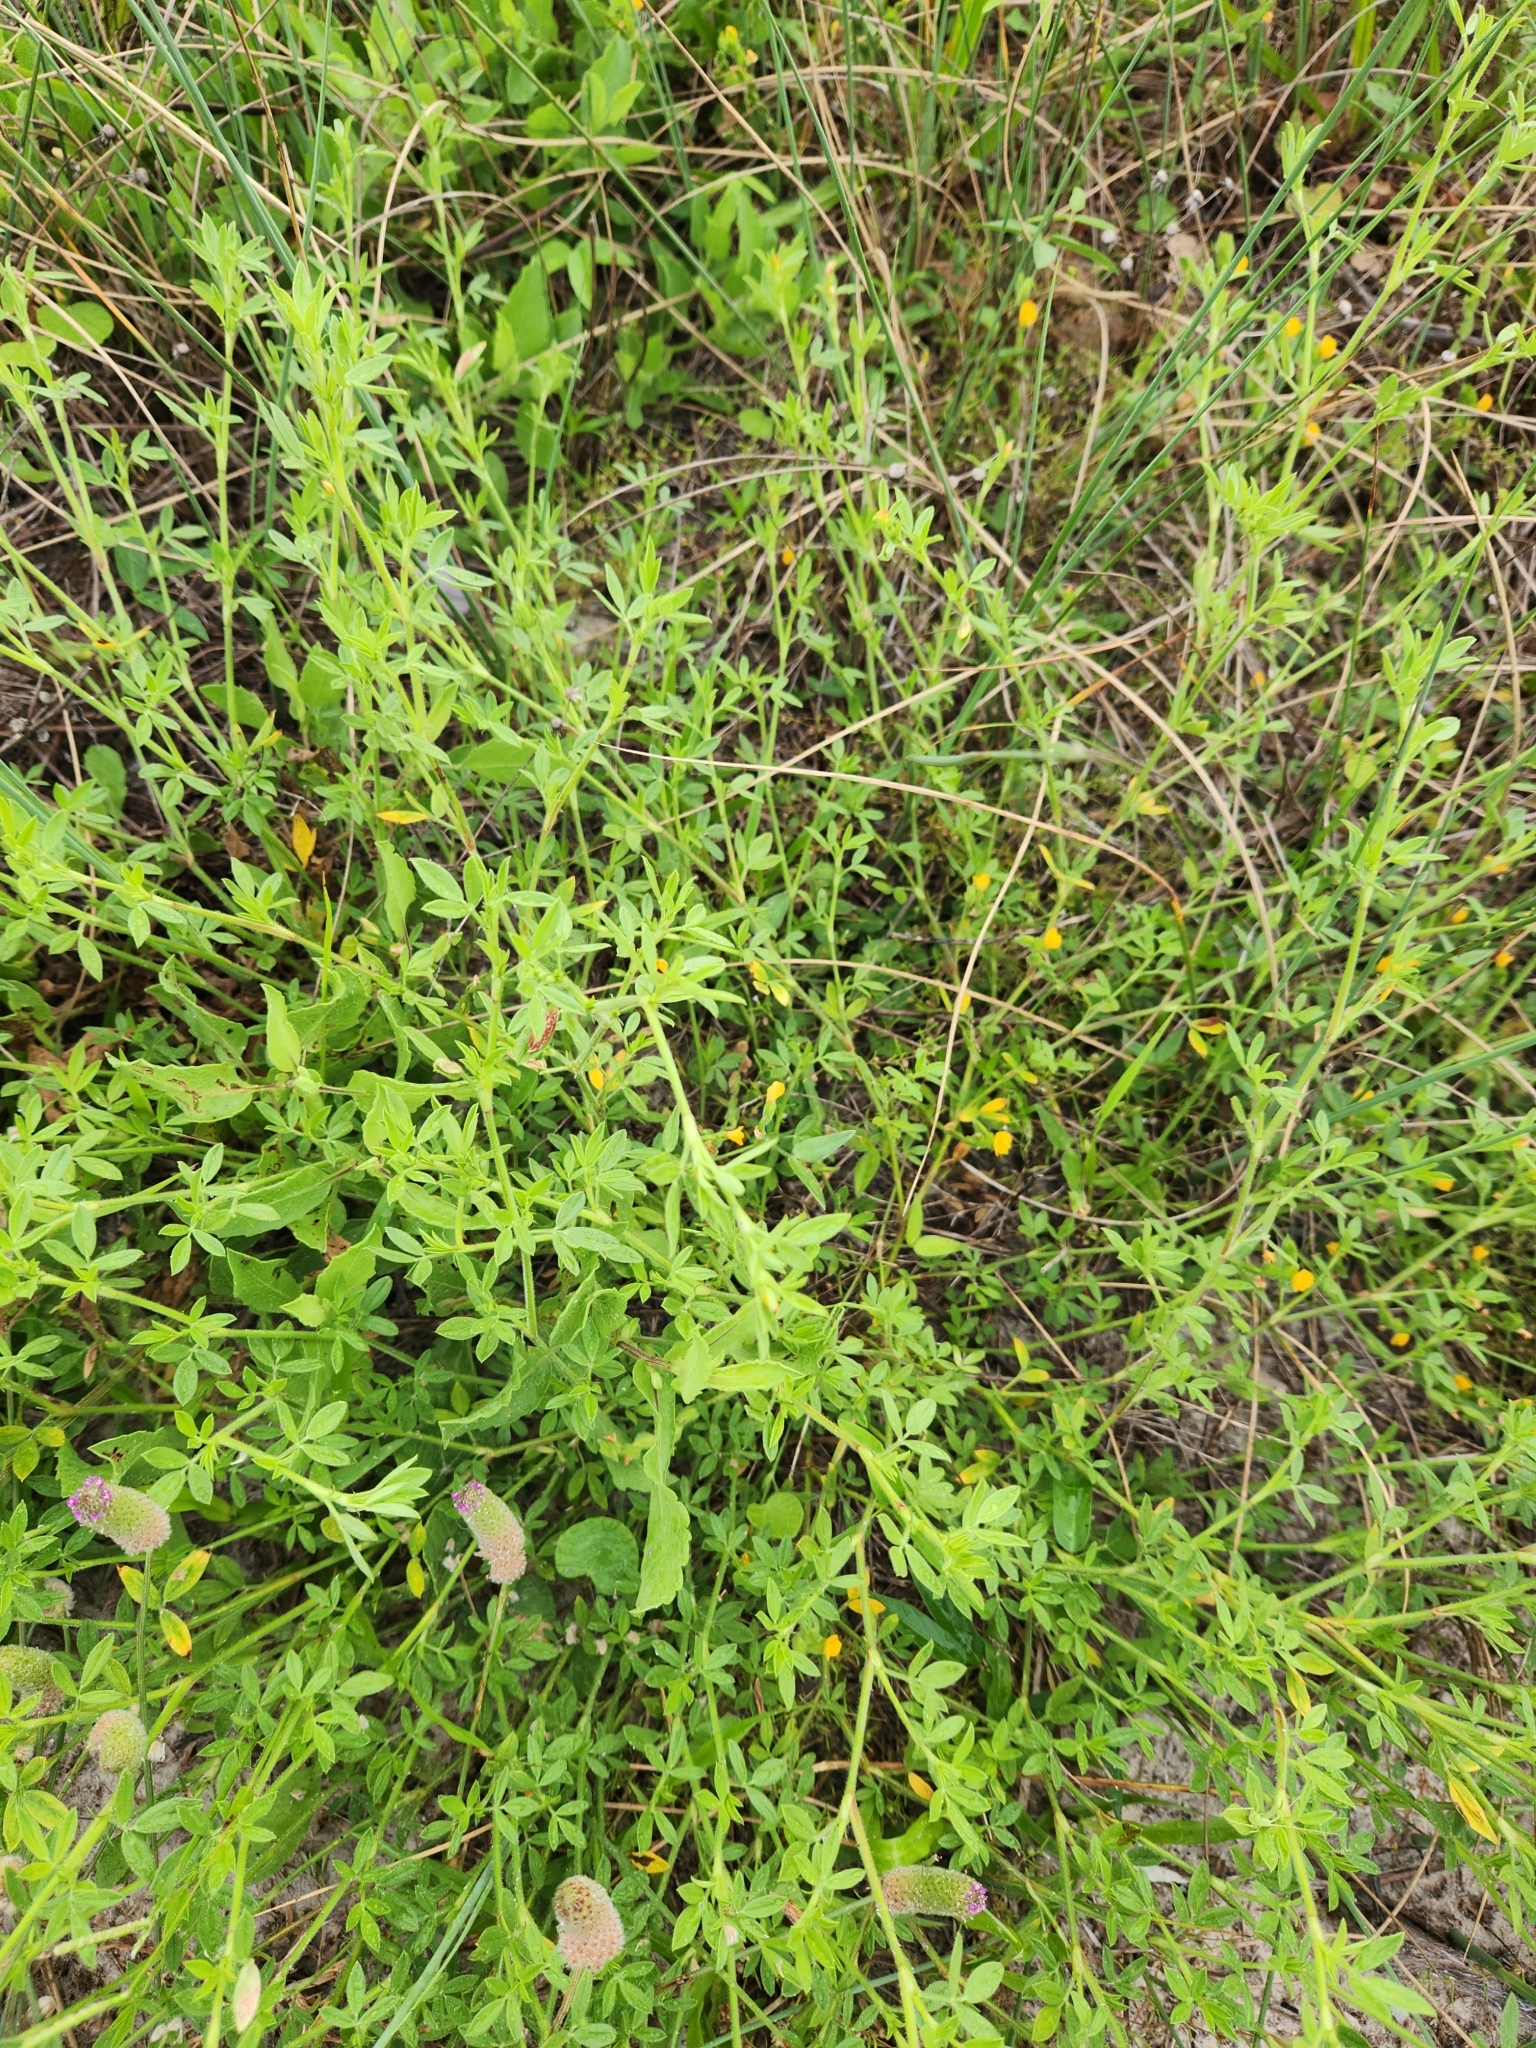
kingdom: Plantae
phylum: Tracheophyta
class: Magnoliopsida
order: Fabales
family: Fabaceae
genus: Stylosanthes
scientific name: Stylosanthes biflora
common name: Two-flower pencil-flower
